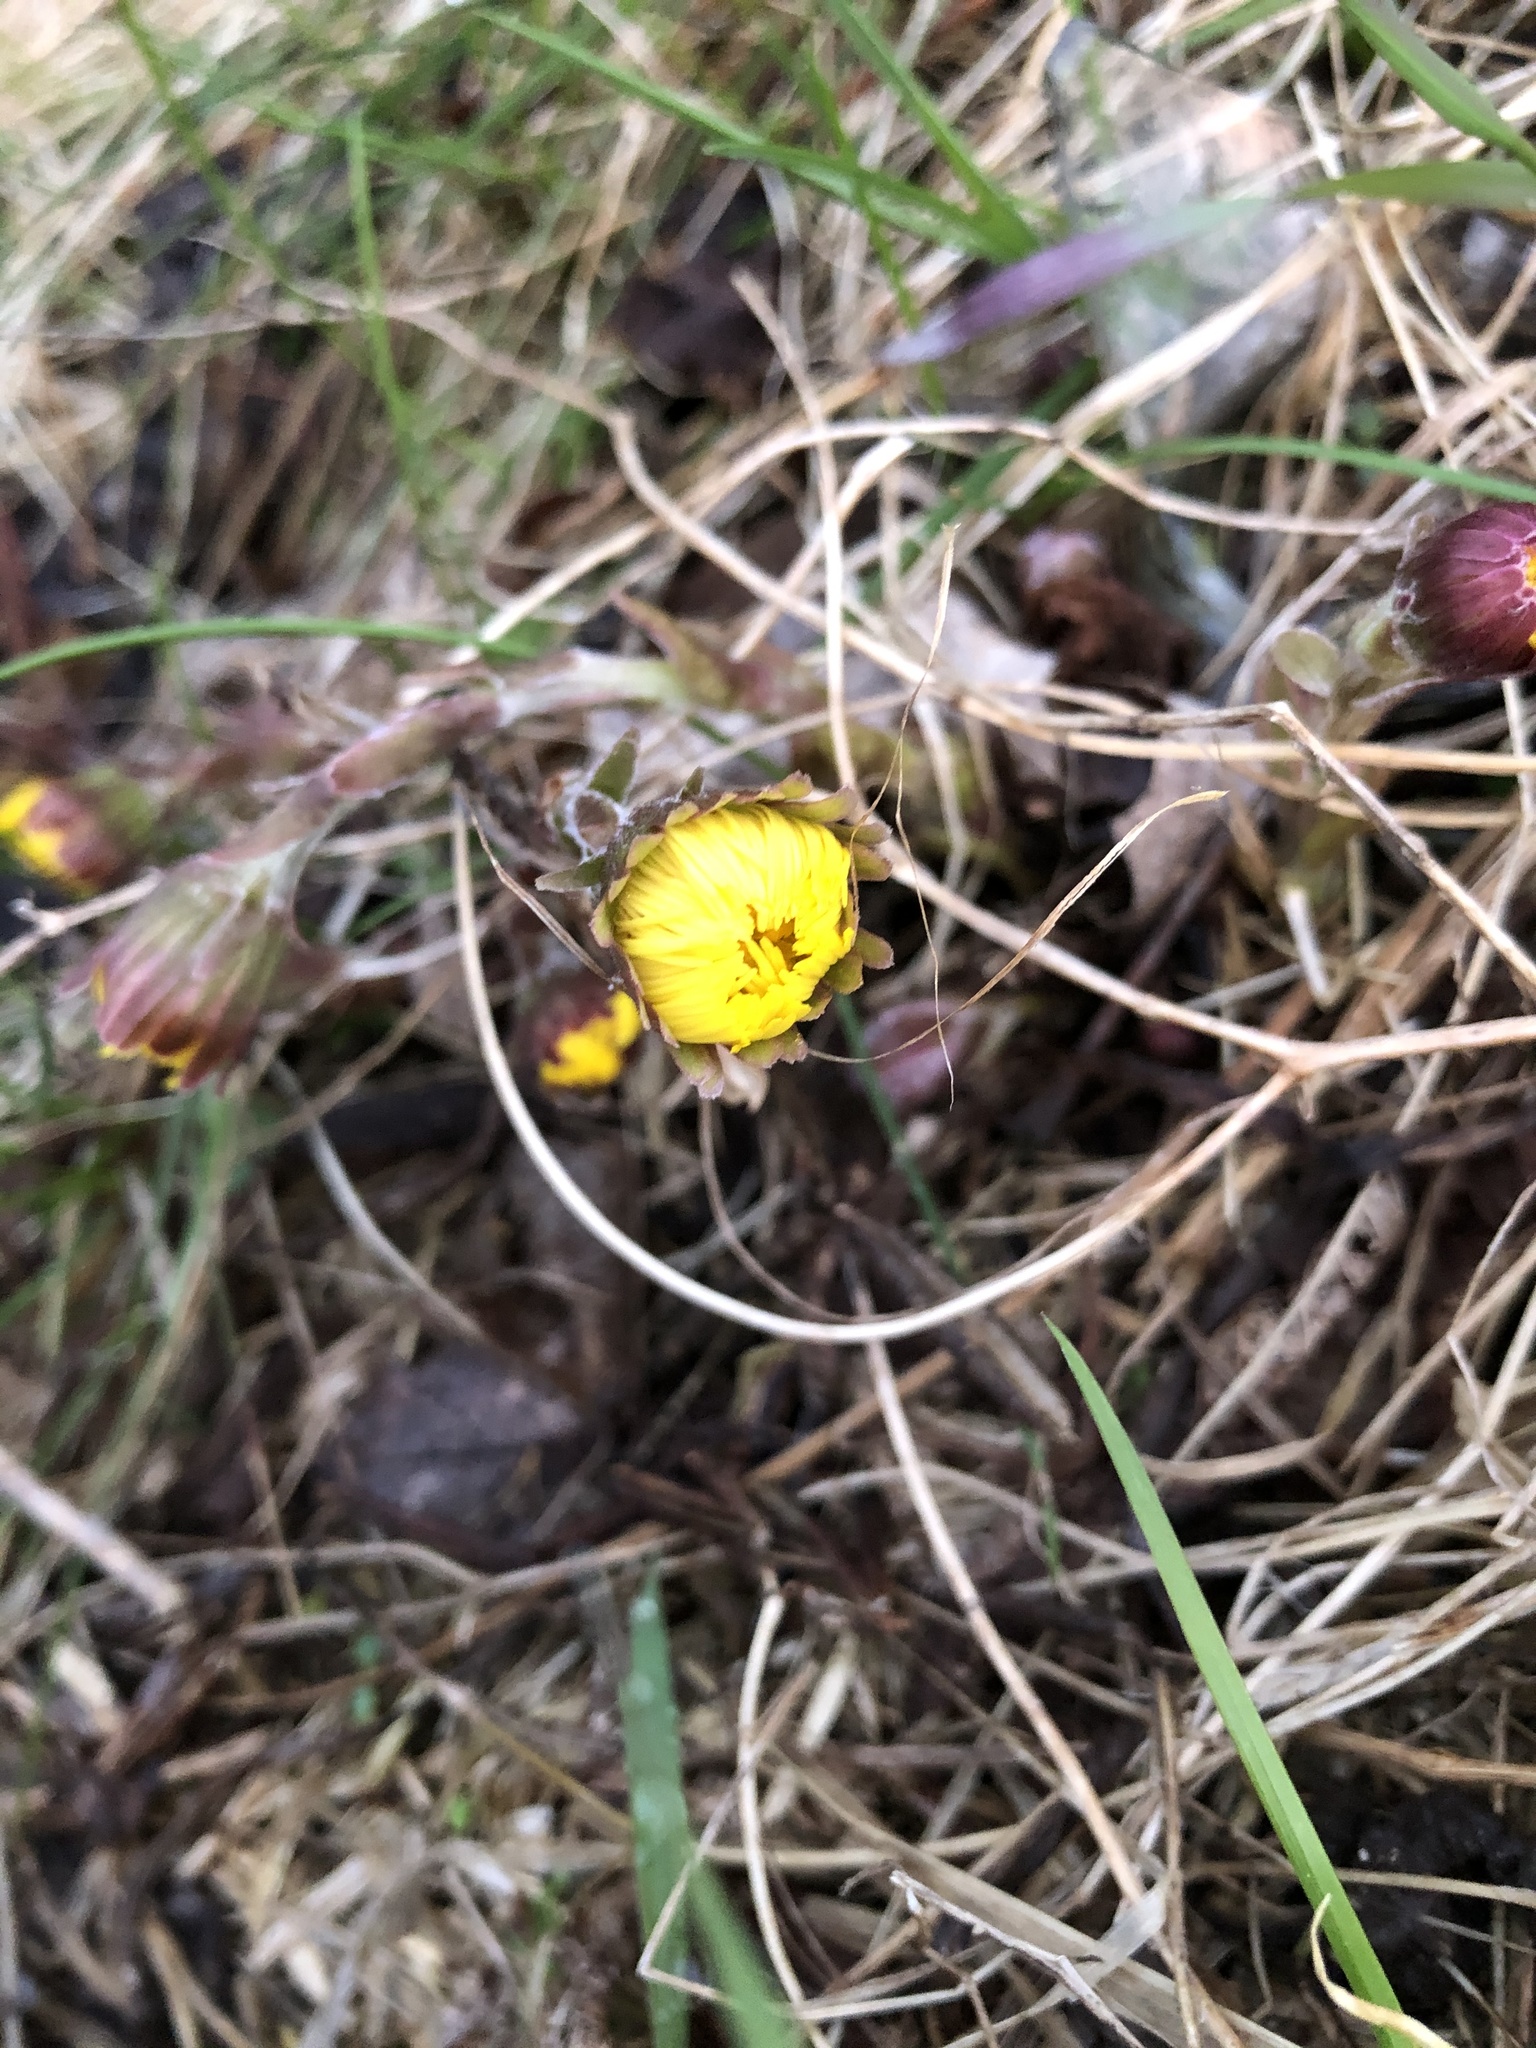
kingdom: Plantae
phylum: Tracheophyta
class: Magnoliopsida
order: Asterales
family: Asteraceae
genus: Tussilago
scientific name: Tussilago farfara
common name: Coltsfoot
